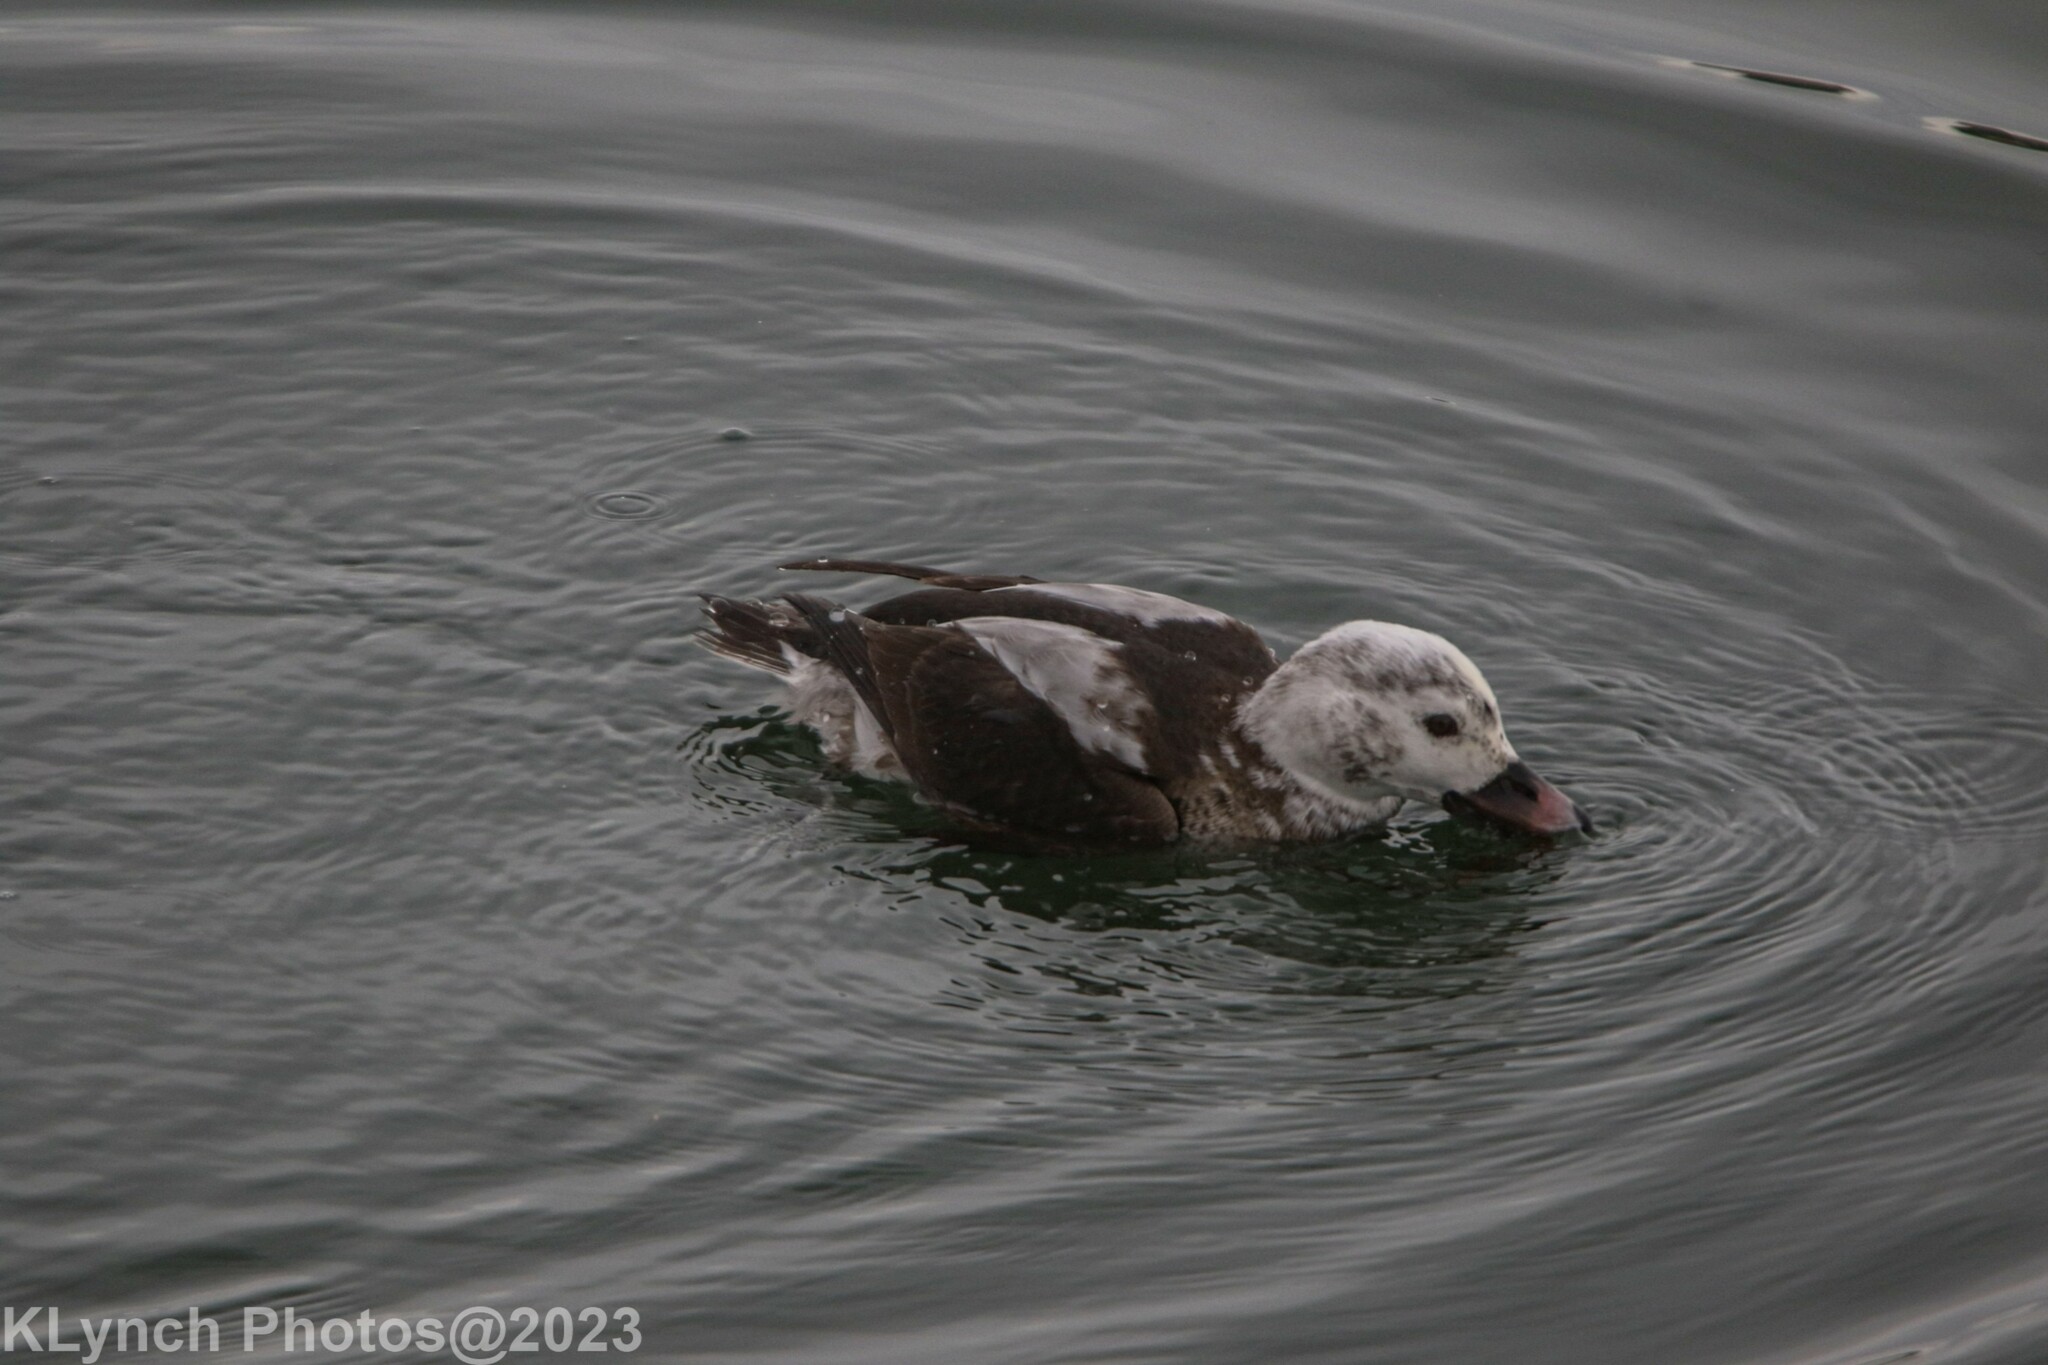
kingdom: Animalia
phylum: Chordata
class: Aves
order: Anseriformes
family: Anatidae
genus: Clangula
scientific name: Clangula hyemalis
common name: Long-tailed duck
